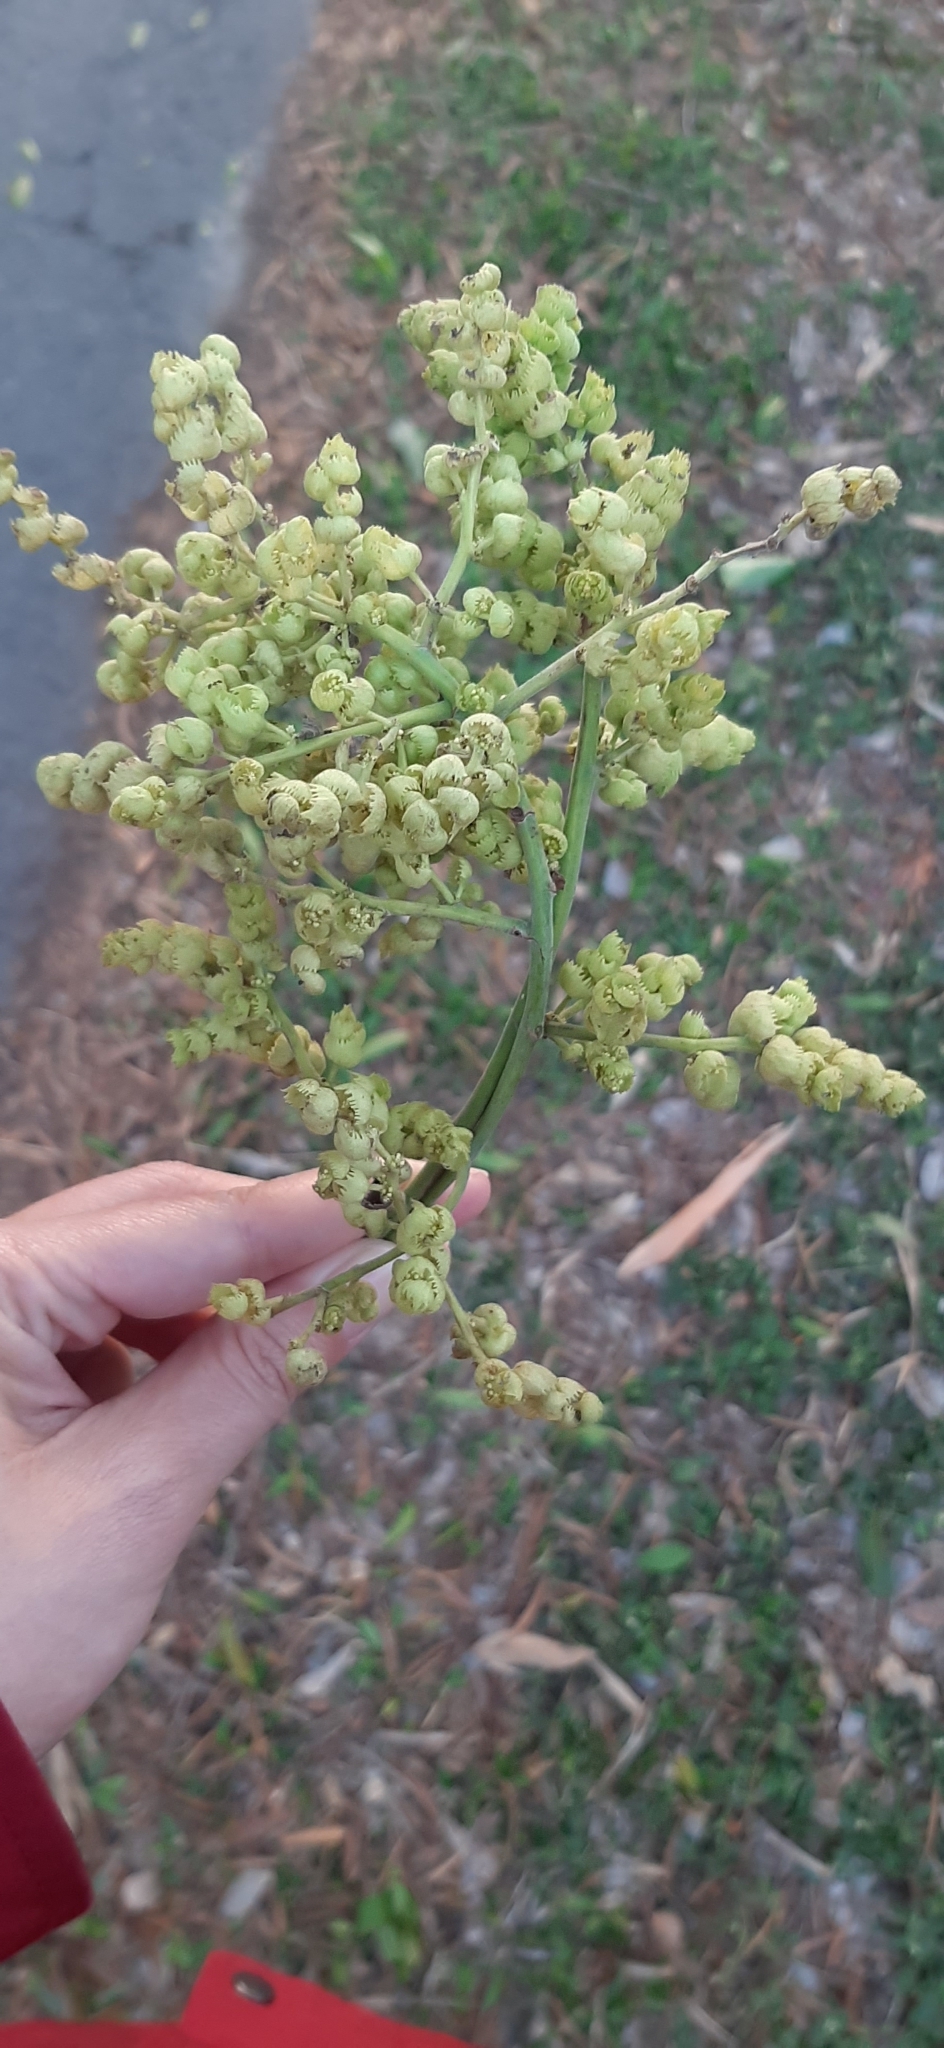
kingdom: Plantae
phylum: Tracheophyta
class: Magnoliopsida
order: Malpighiales
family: Euphorbiaceae
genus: Macaranga
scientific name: Macaranga tanarius
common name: Parasol leaf tree
